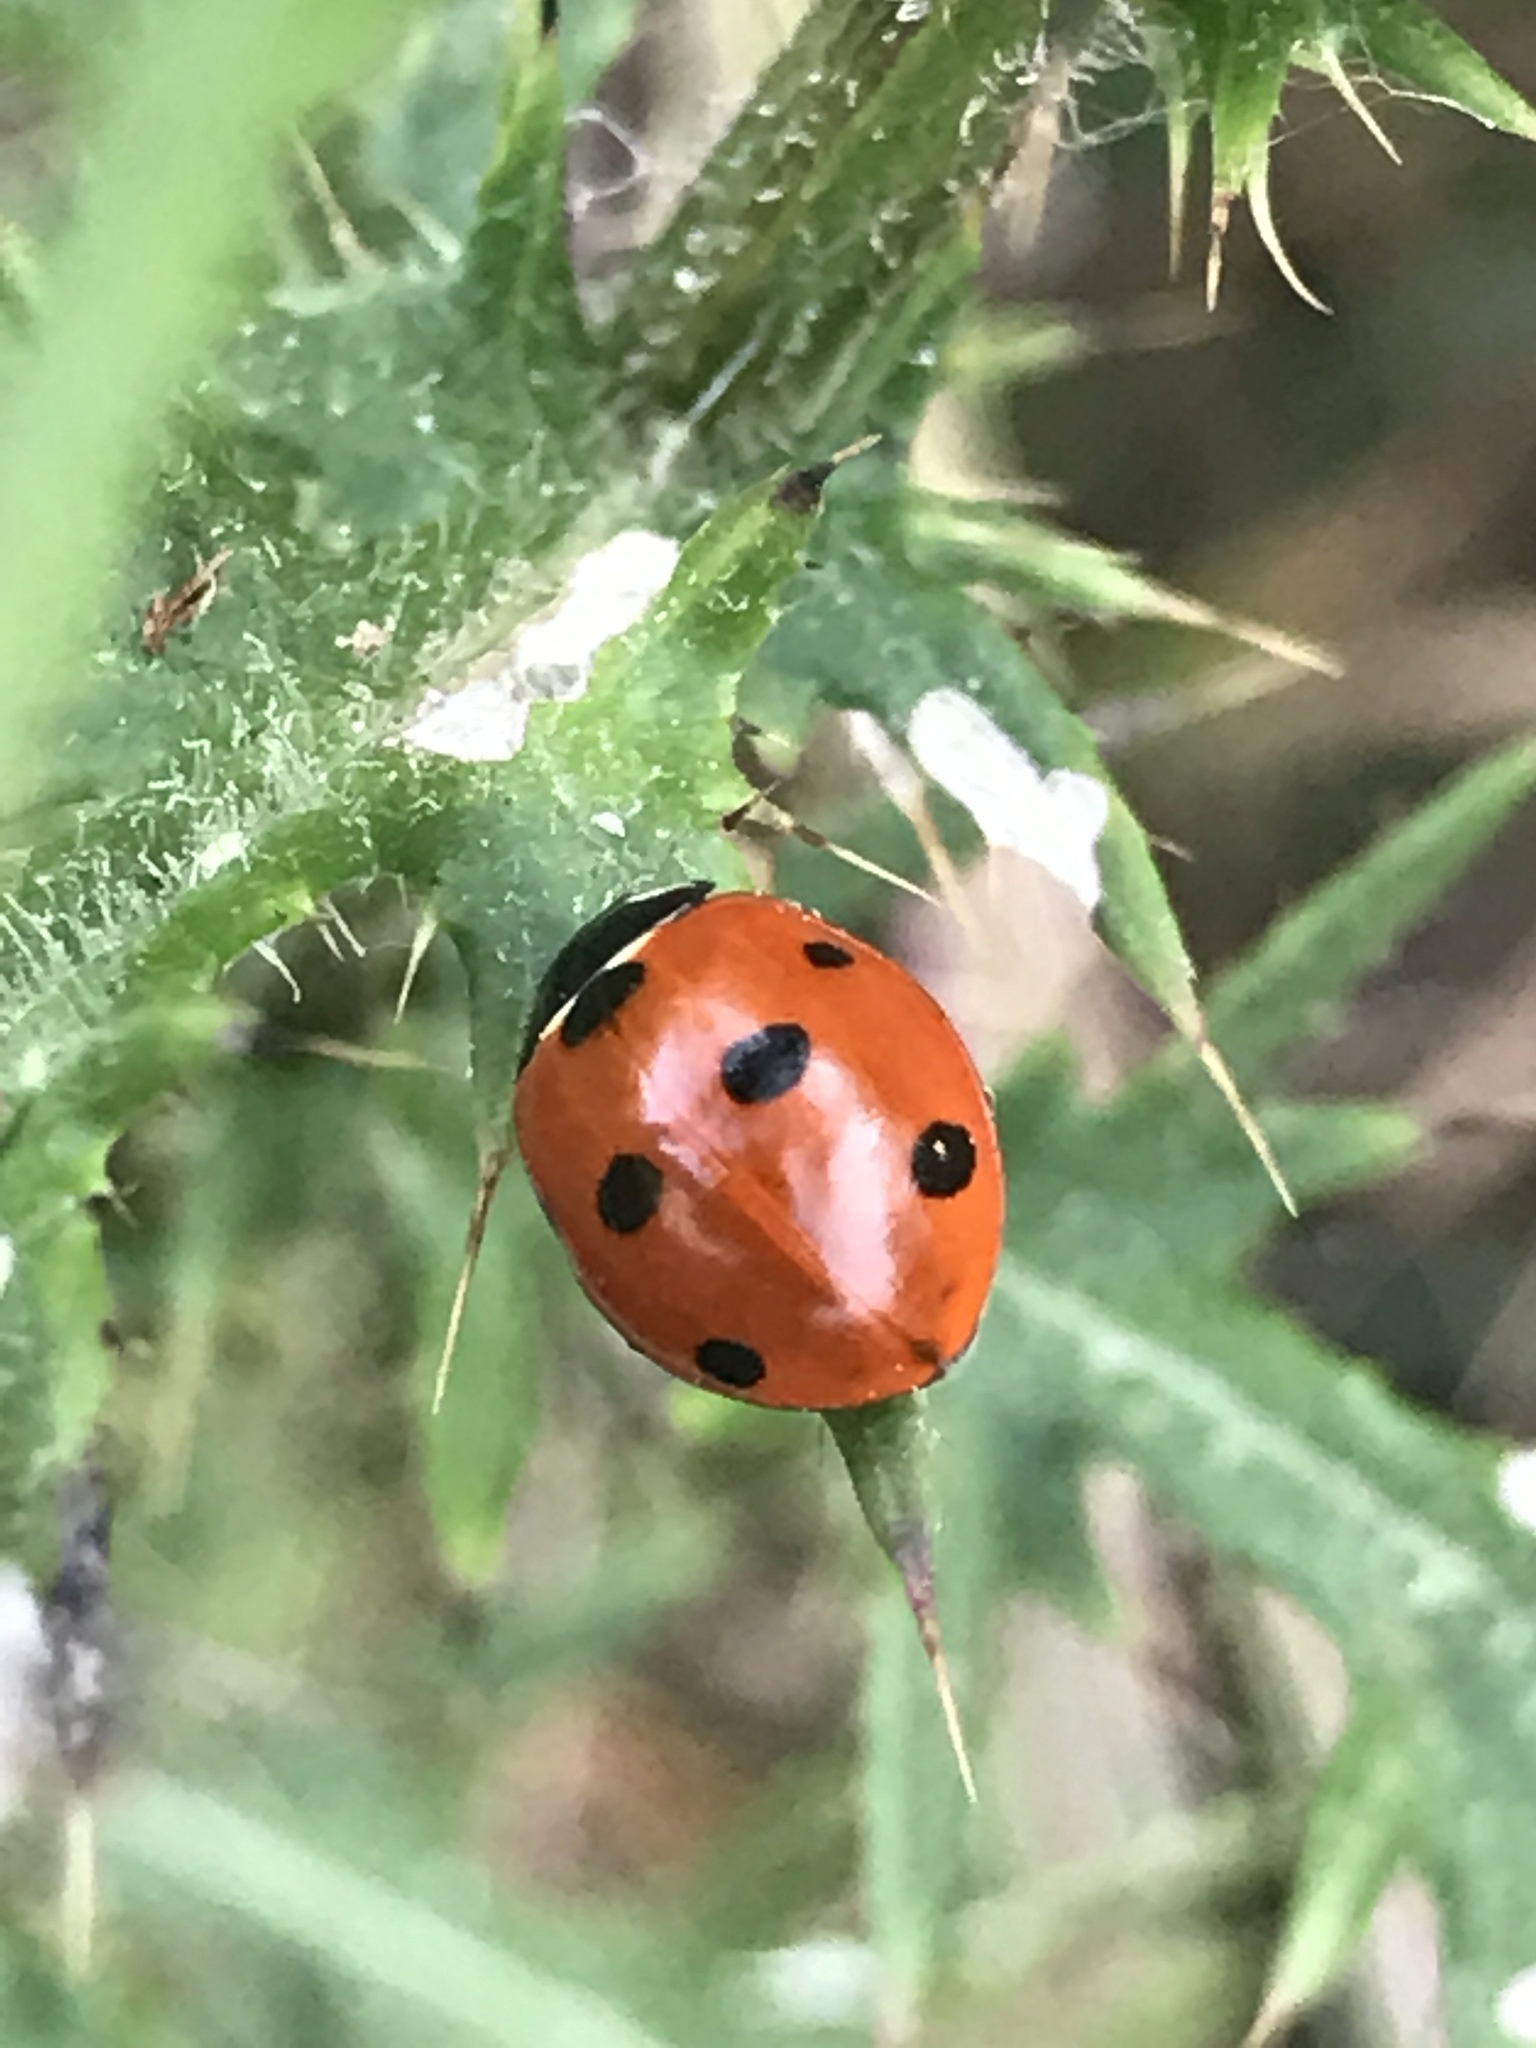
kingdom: Animalia
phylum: Arthropoda
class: Insecta
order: Coleoptera
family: Coccinellidae
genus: Coccinella
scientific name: Coccinella septempunctata
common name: Sevenspotted lady beetle
